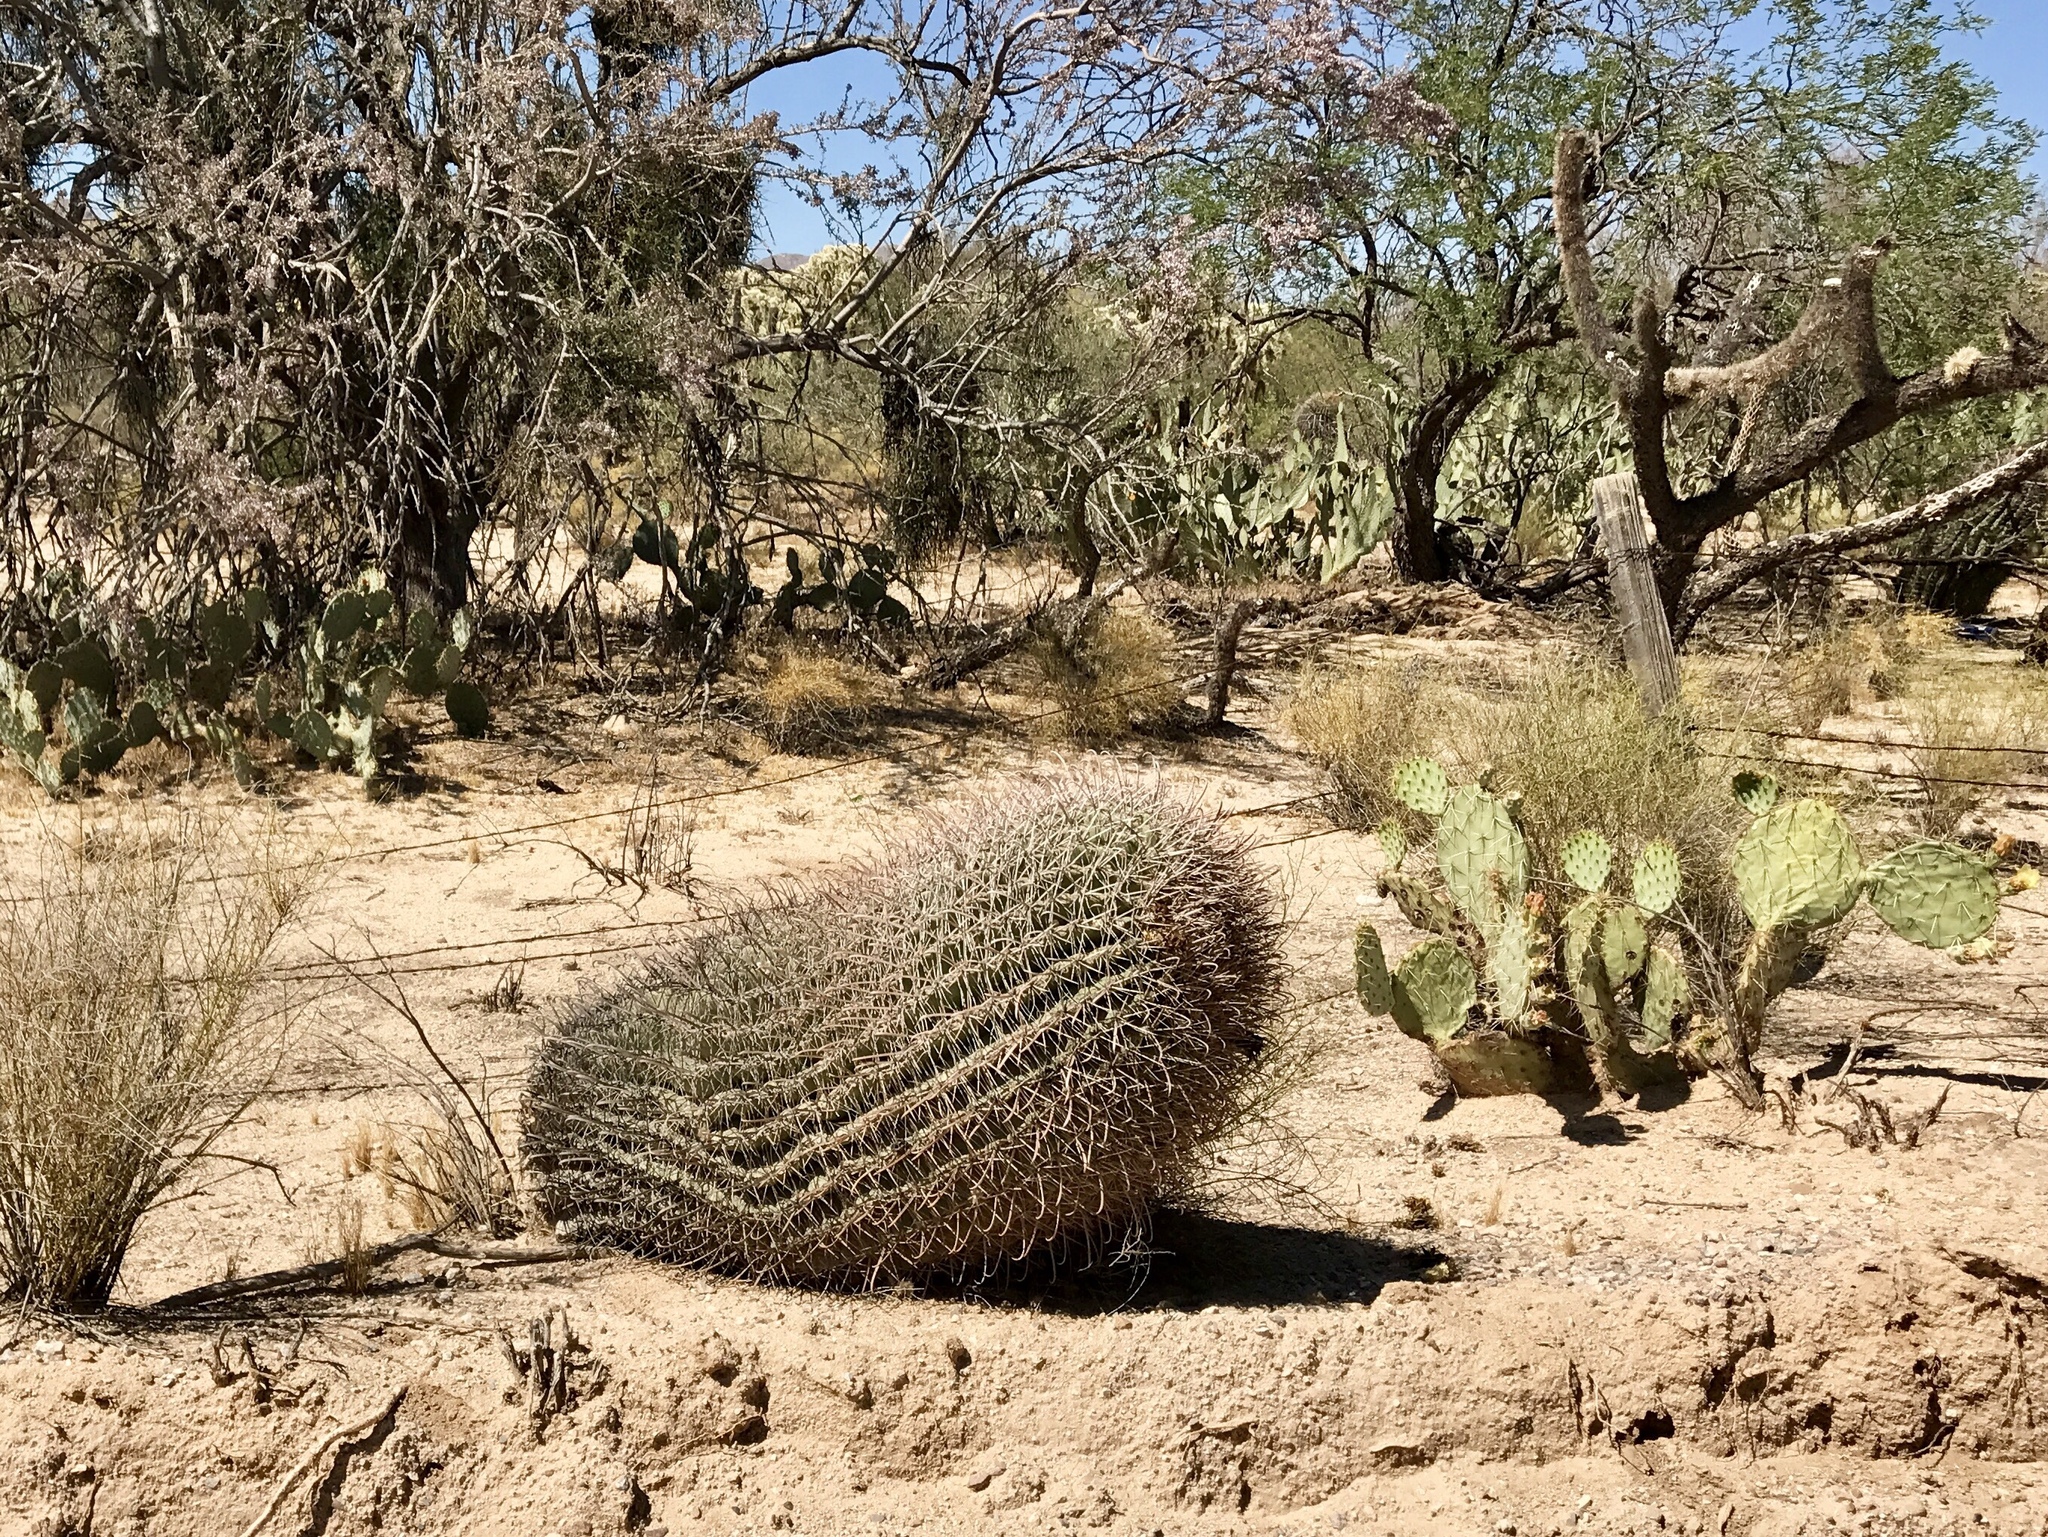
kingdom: Plantae
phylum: Tracheophyta
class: Magnoliopsida
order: Caryophyllales
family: Cactaceae
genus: Ferocactus
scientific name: Ferocactus wislizeni
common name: Candy barrel cactus
